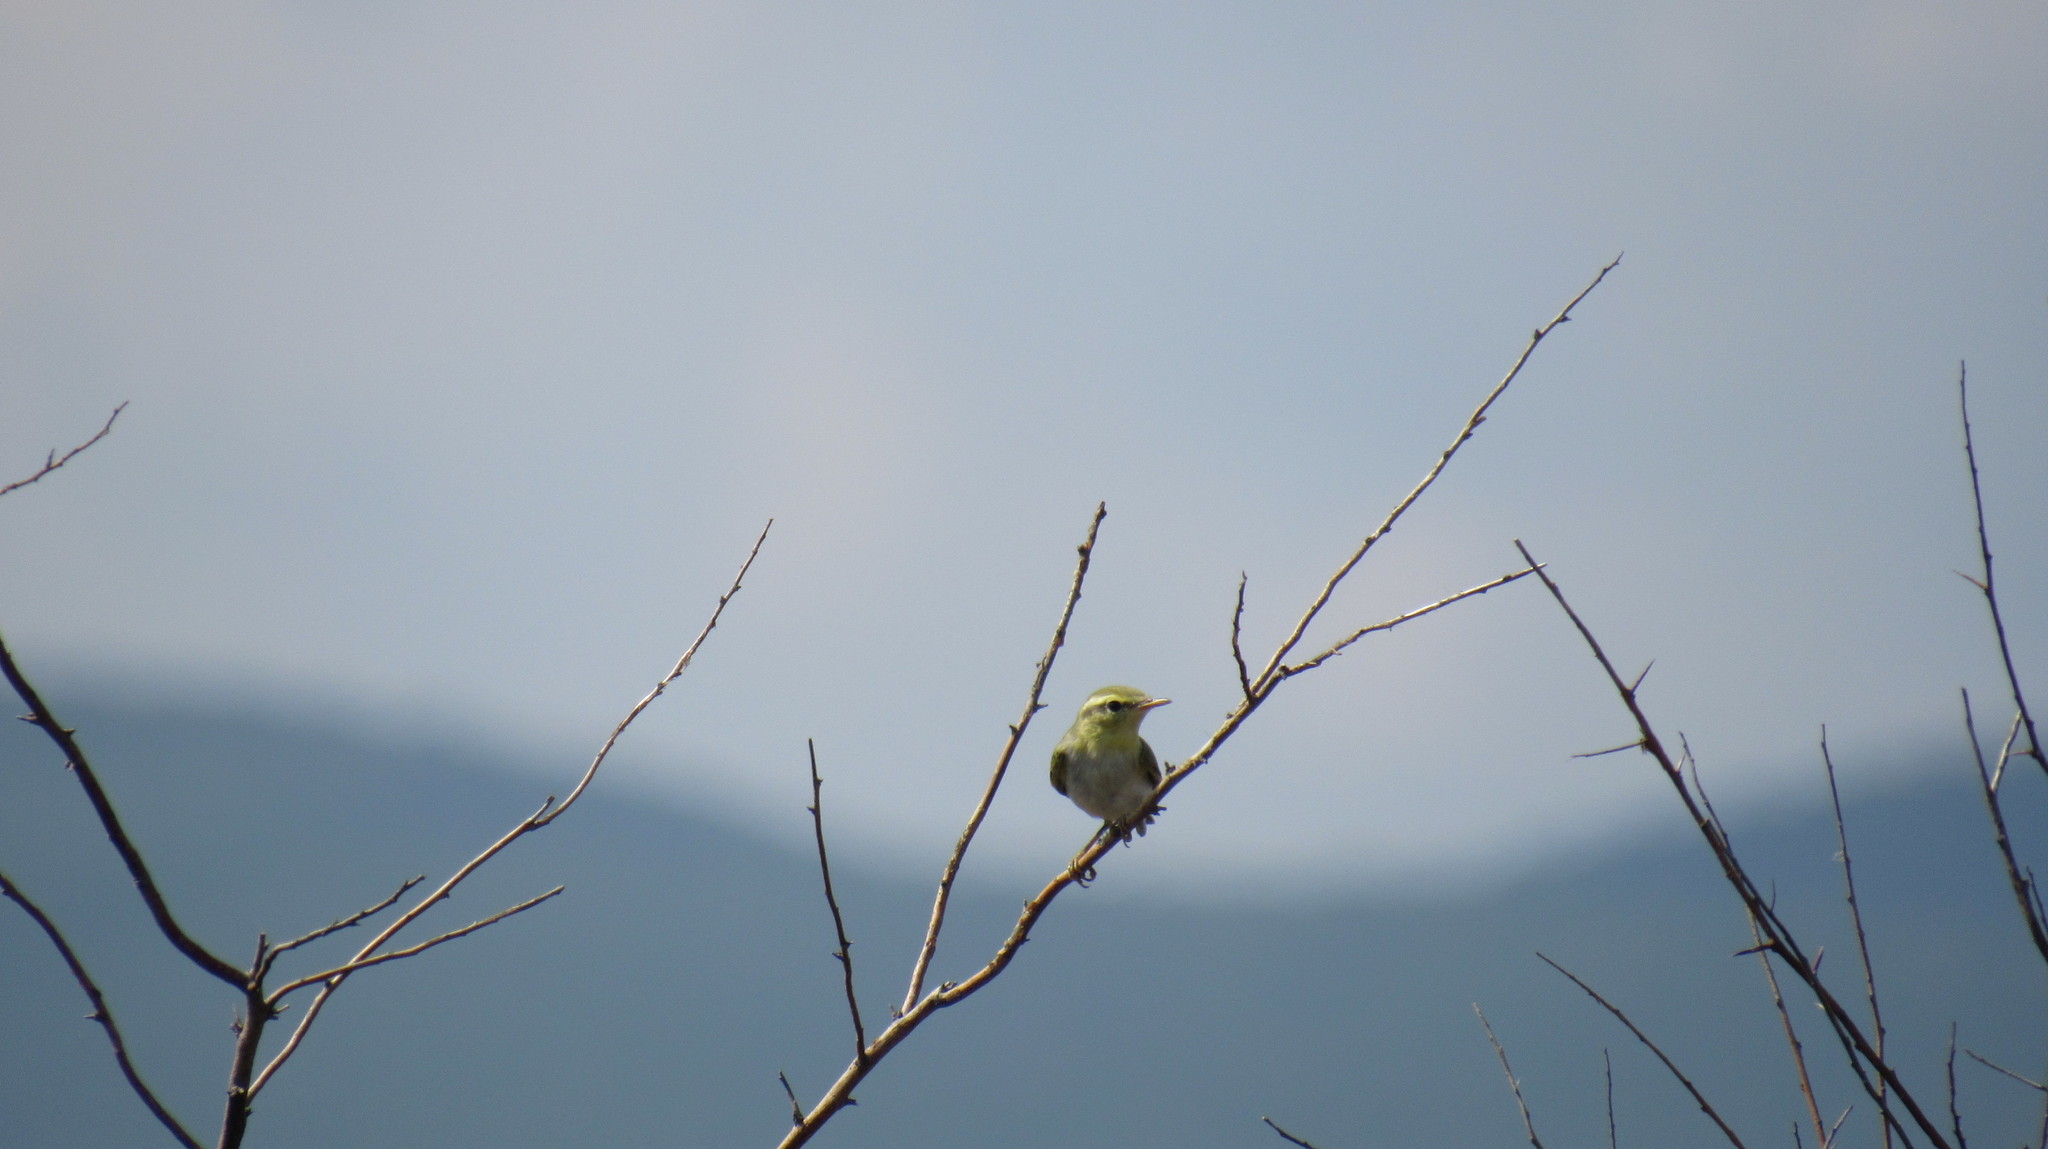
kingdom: Animalia
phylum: Chordata
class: Aves
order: Passeriformes
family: Phylloscopidae
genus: Phylloscopus
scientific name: Phylloscopus sibillatrix
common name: Wood warbler
